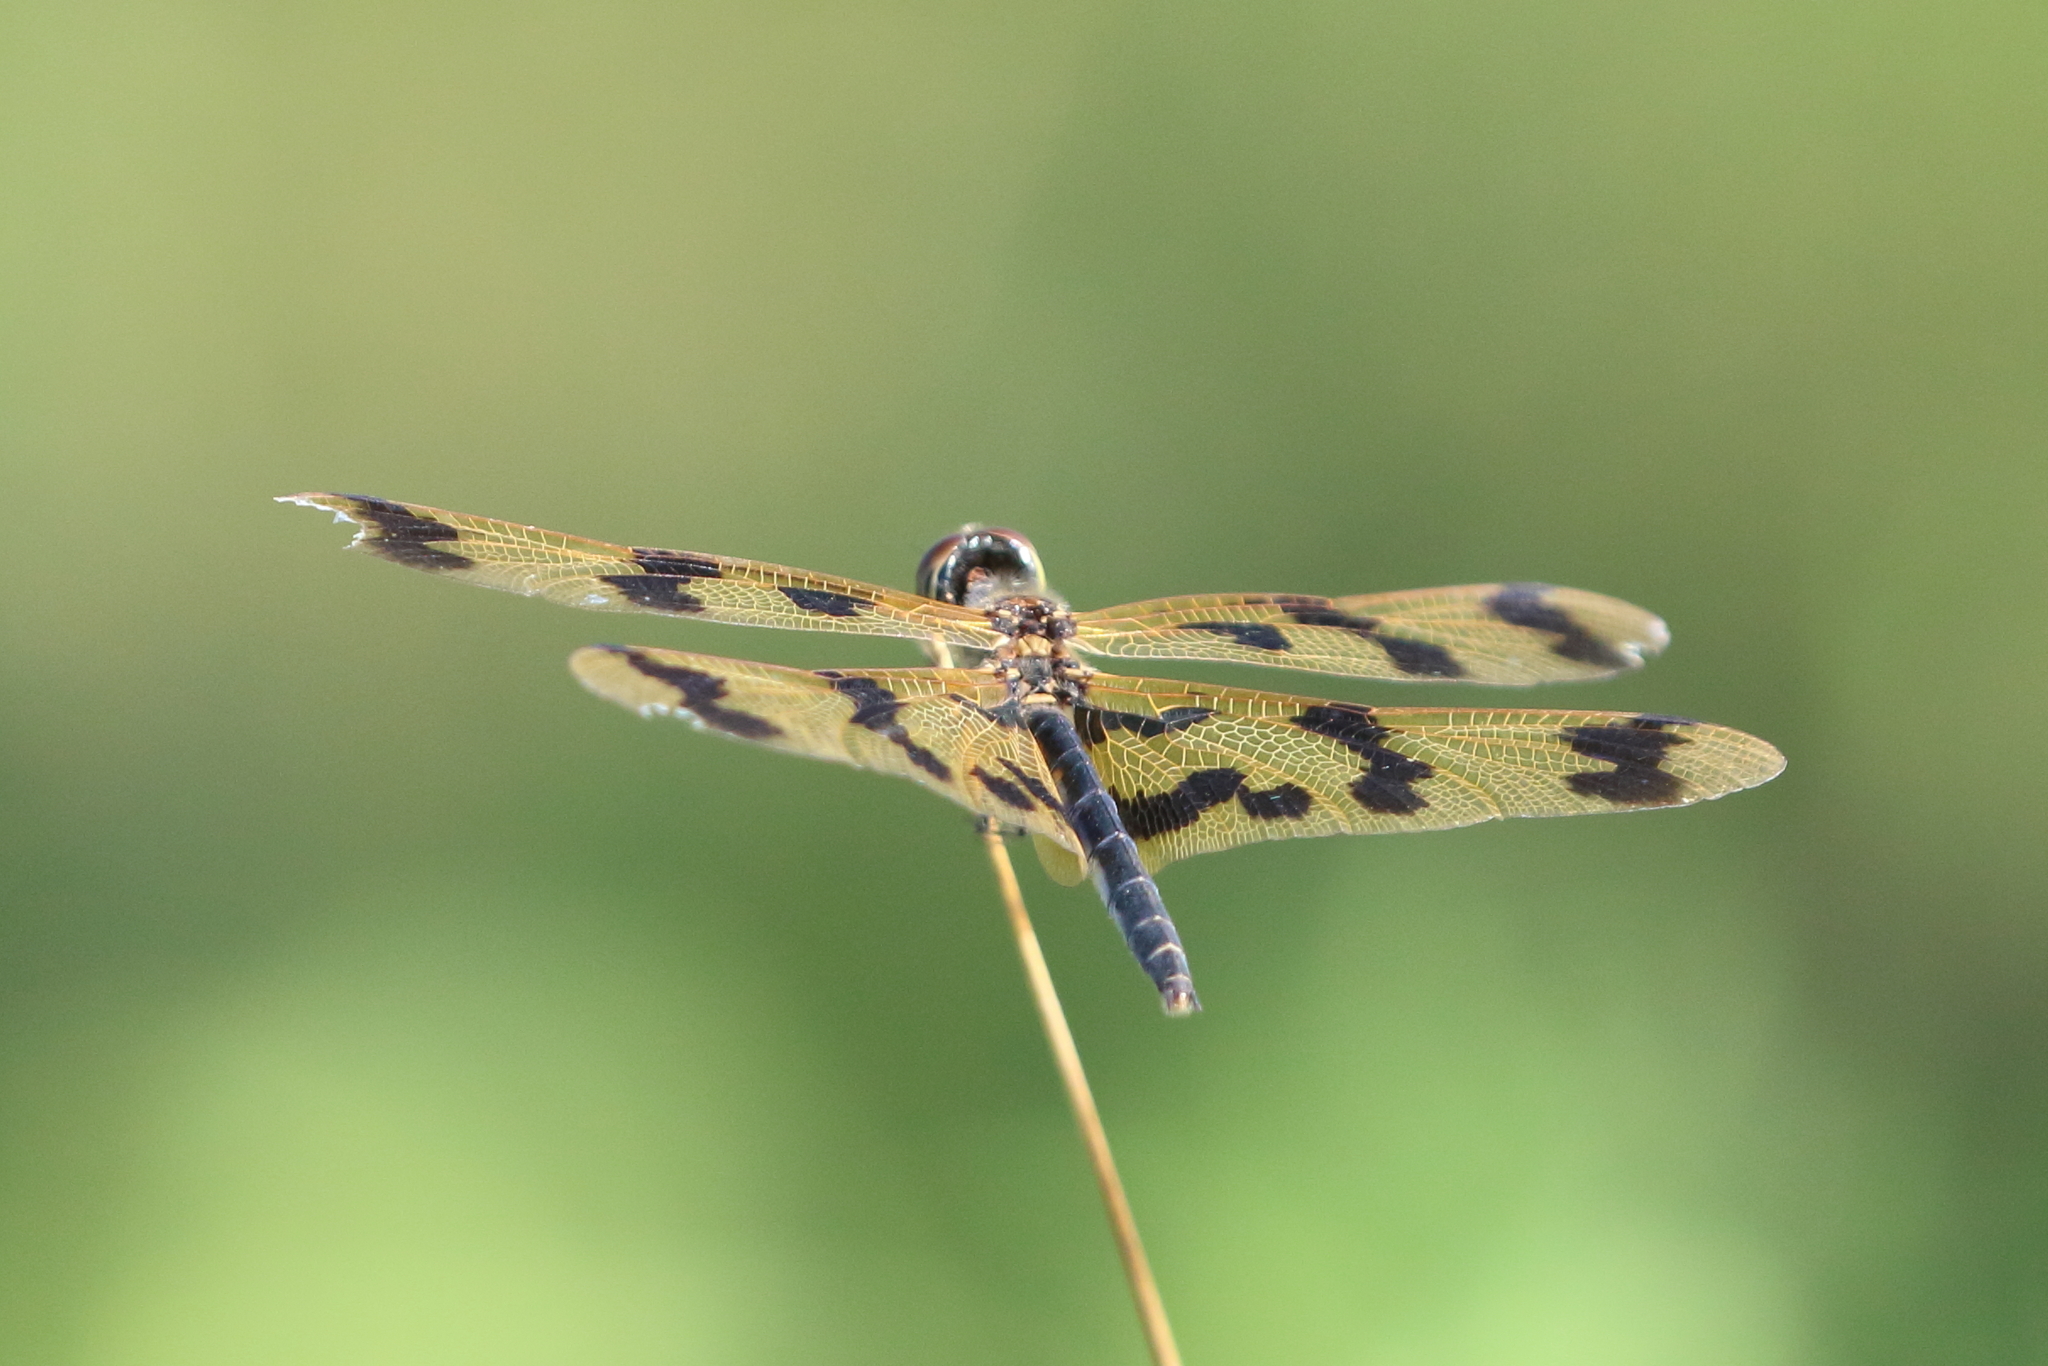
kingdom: Animalia
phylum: Arthropoda
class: Insecta
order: Odonata
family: Libellulidae
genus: Rhyothemis
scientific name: Rhyothemis graphiptera
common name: Graphic flutterer
